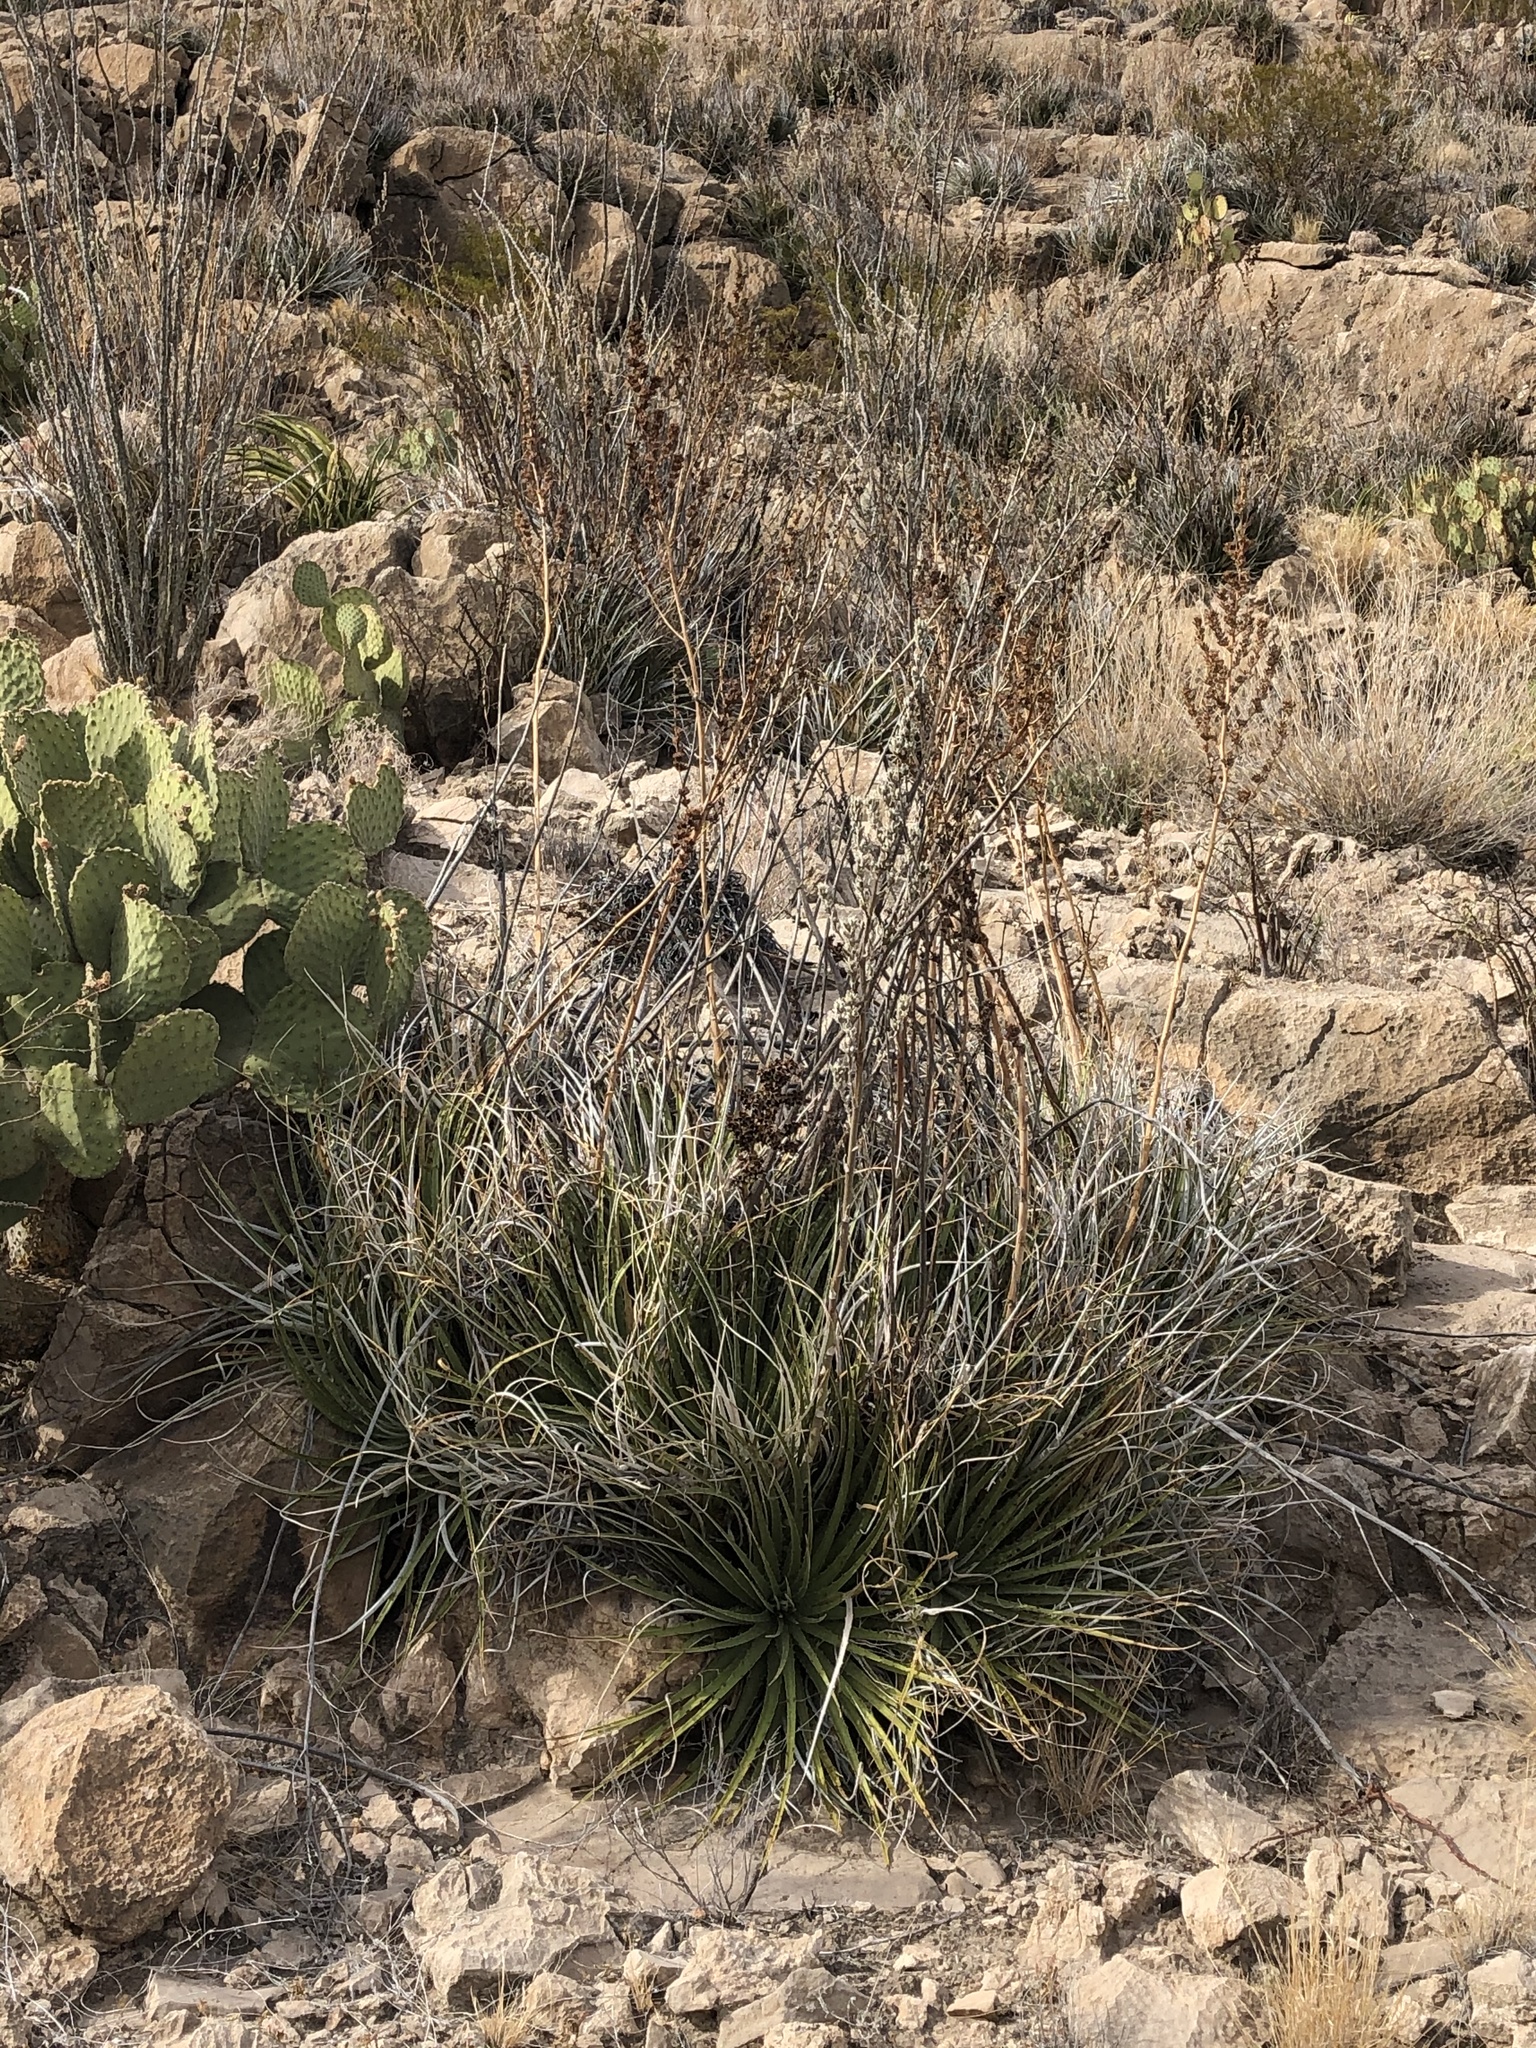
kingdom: Plantae
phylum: Tracheophyta
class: Liliopsida
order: Poales
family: Bromeliaceae
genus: Hechtia
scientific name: Hechtia texensis
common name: False agave
